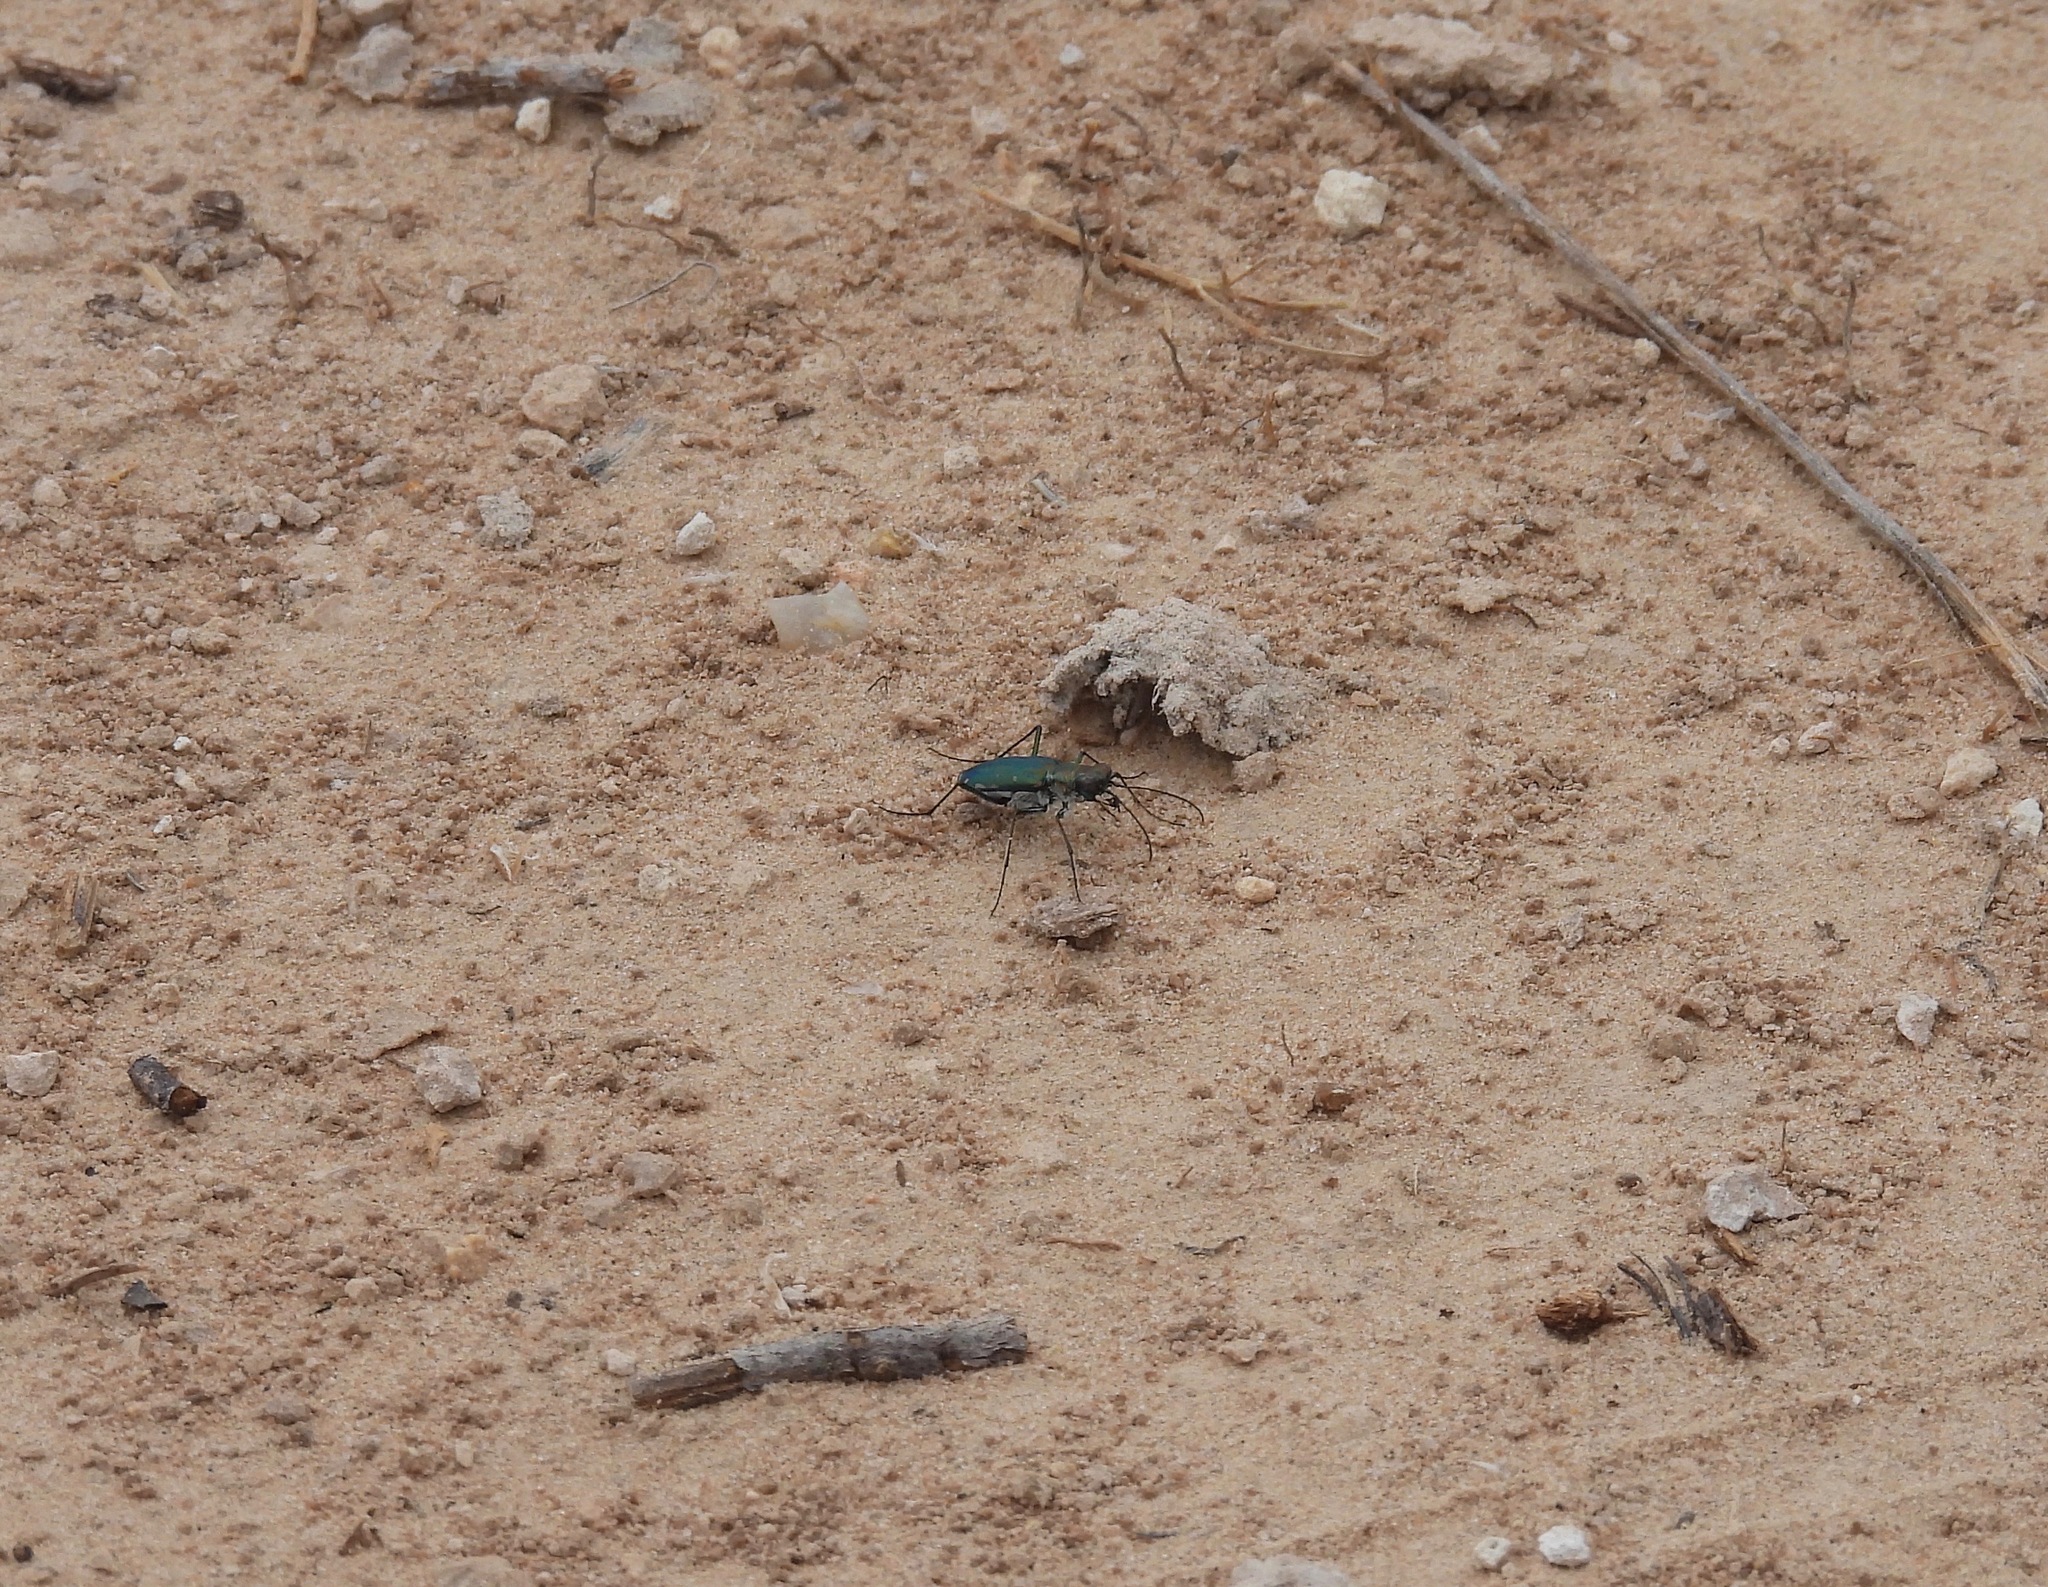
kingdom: Animalia
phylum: Arthropoda
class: Insecta
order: Coleoptera
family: Carabidae
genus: Cicindela
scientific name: Cicindela punctulata
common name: Punctured tiger beetle
